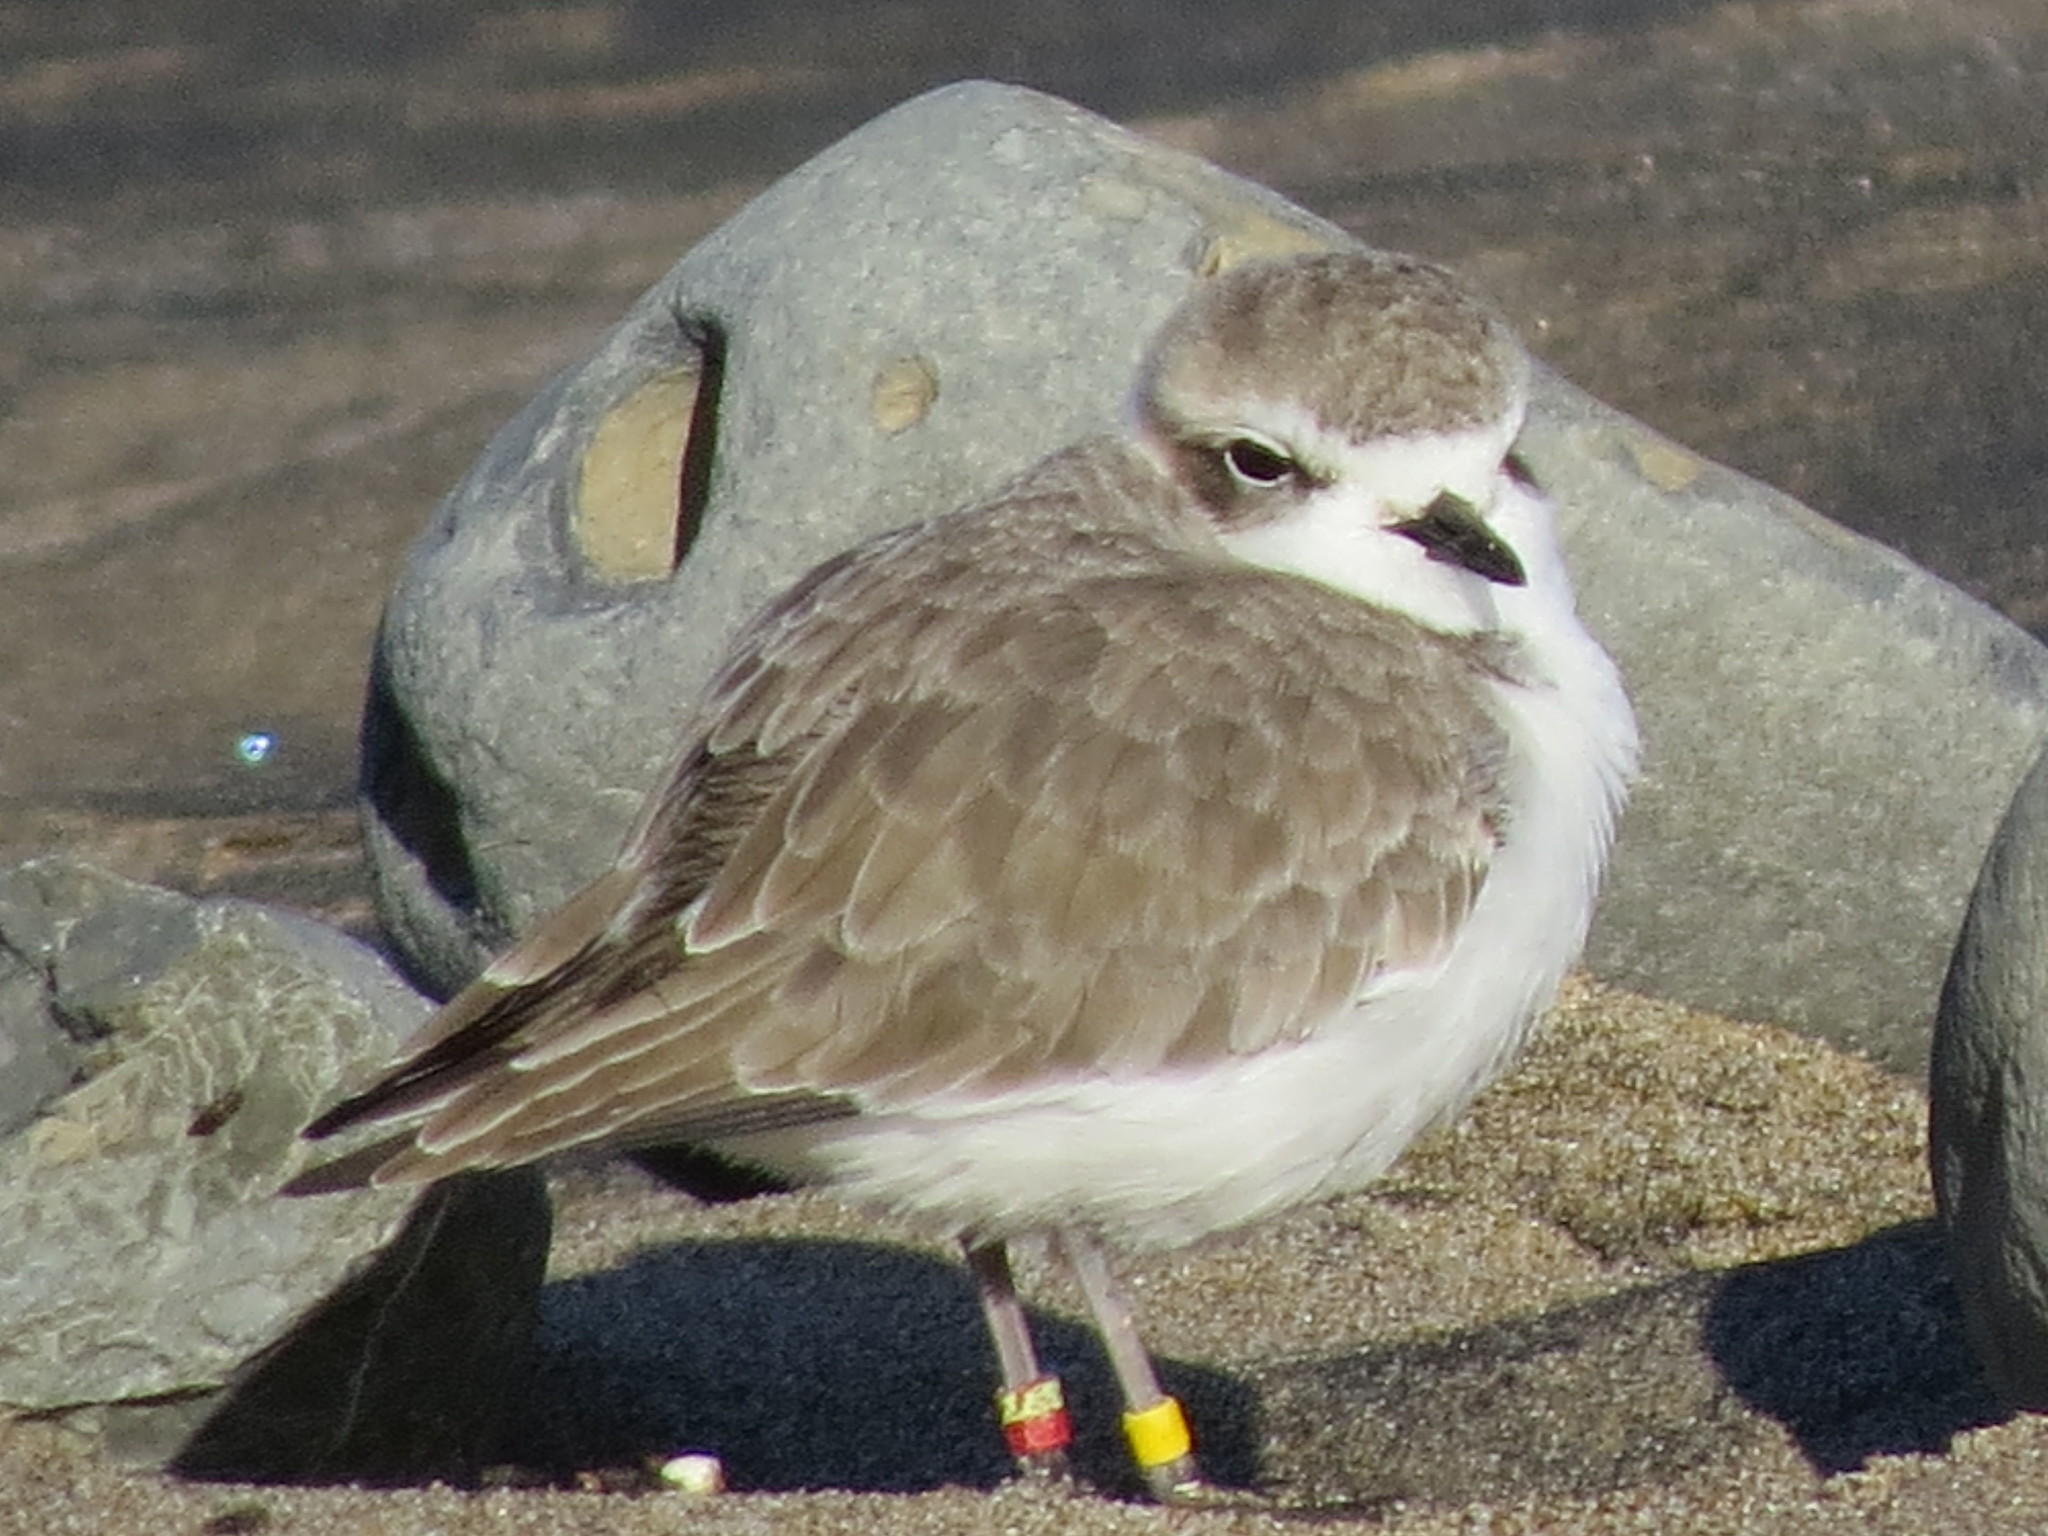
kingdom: Animalia
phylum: Chordata
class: Aves
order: Charadriiformes
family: Charadriidae
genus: Anarhynchus
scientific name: Anarhynchus
